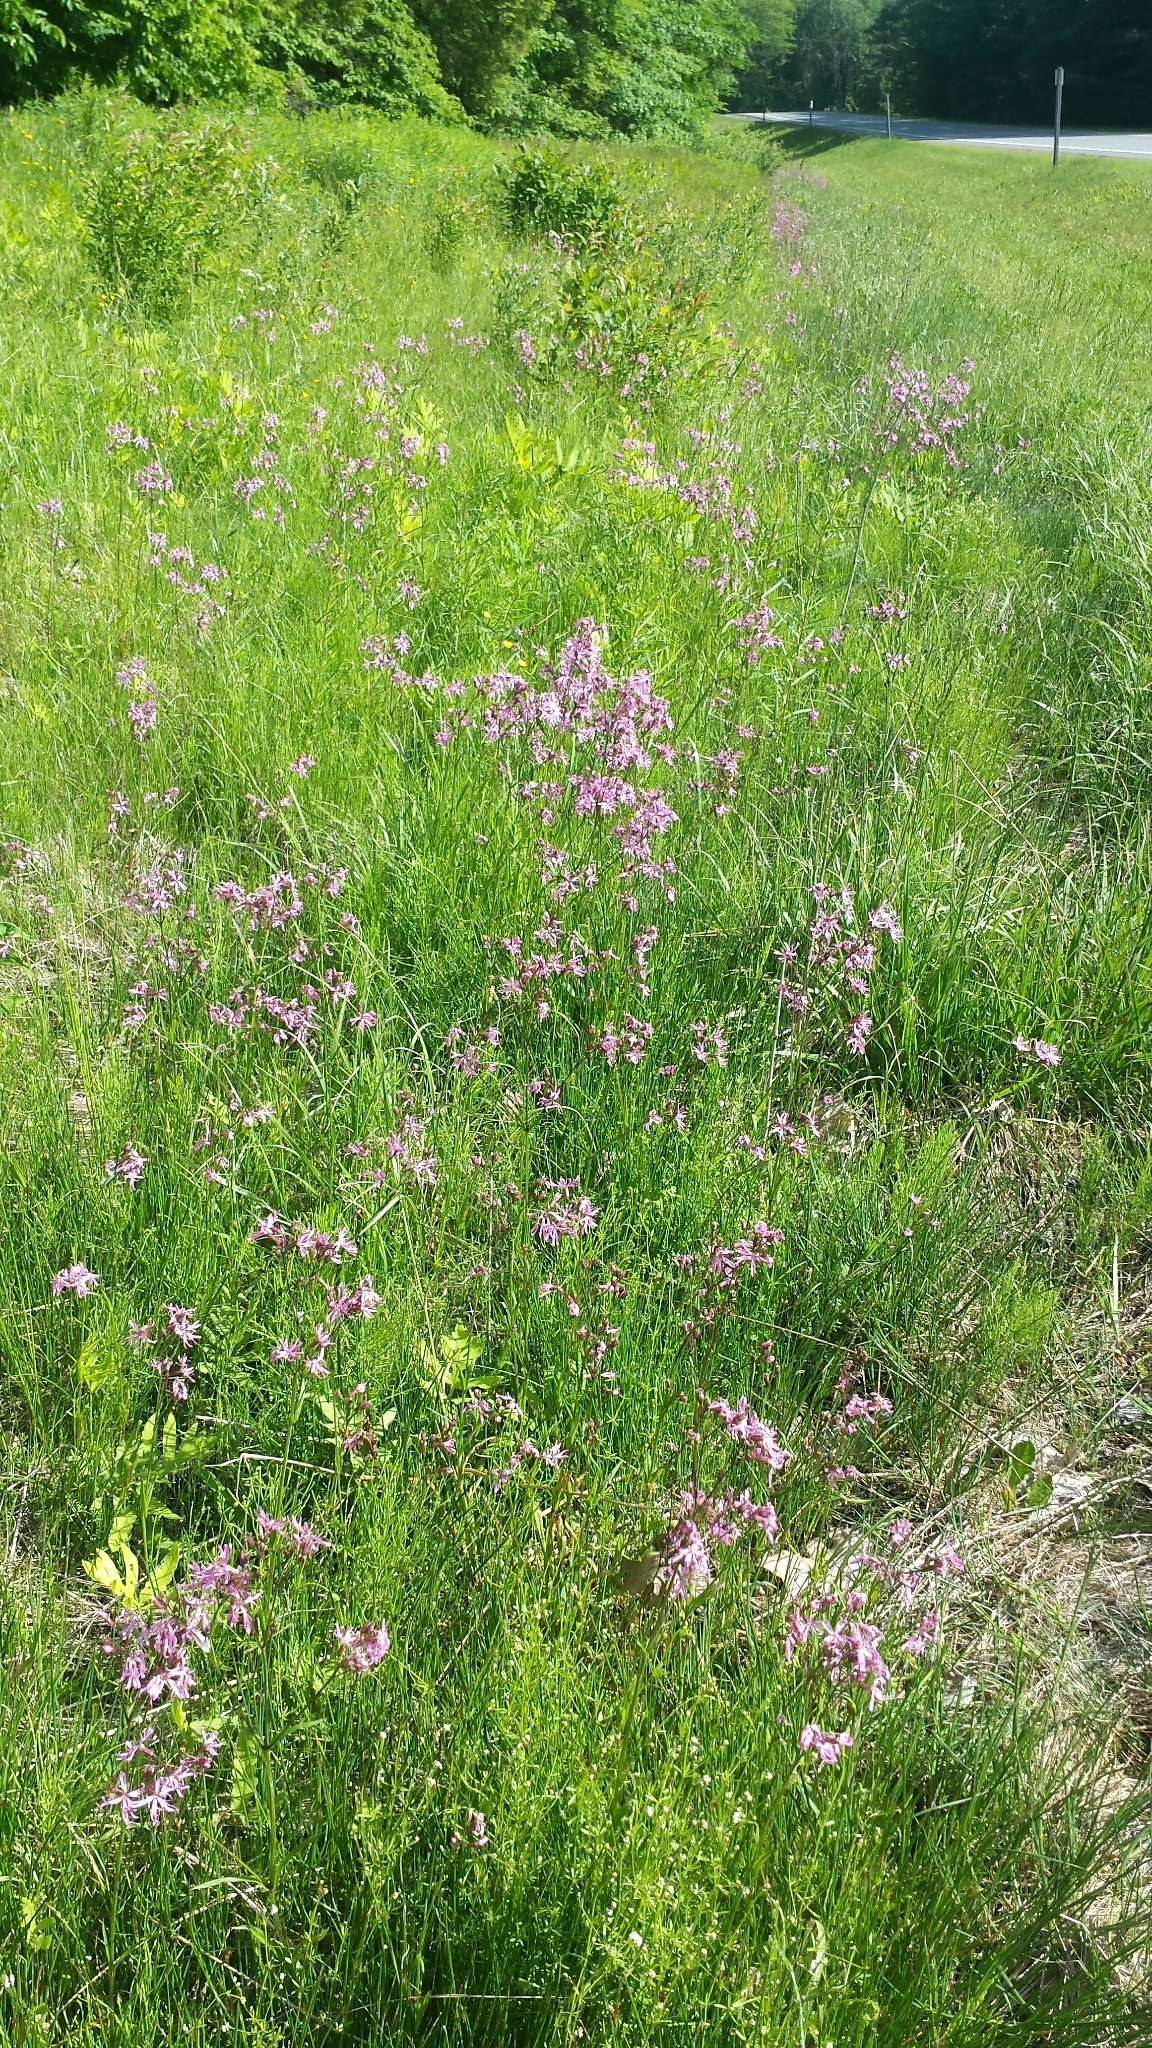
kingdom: Plantae
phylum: Tracheophyta
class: Magnoliopsida
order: Caryophyllales
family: Caryophyllaceae
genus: Silene
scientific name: Silene flos-cuculi
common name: Ragged-robin
